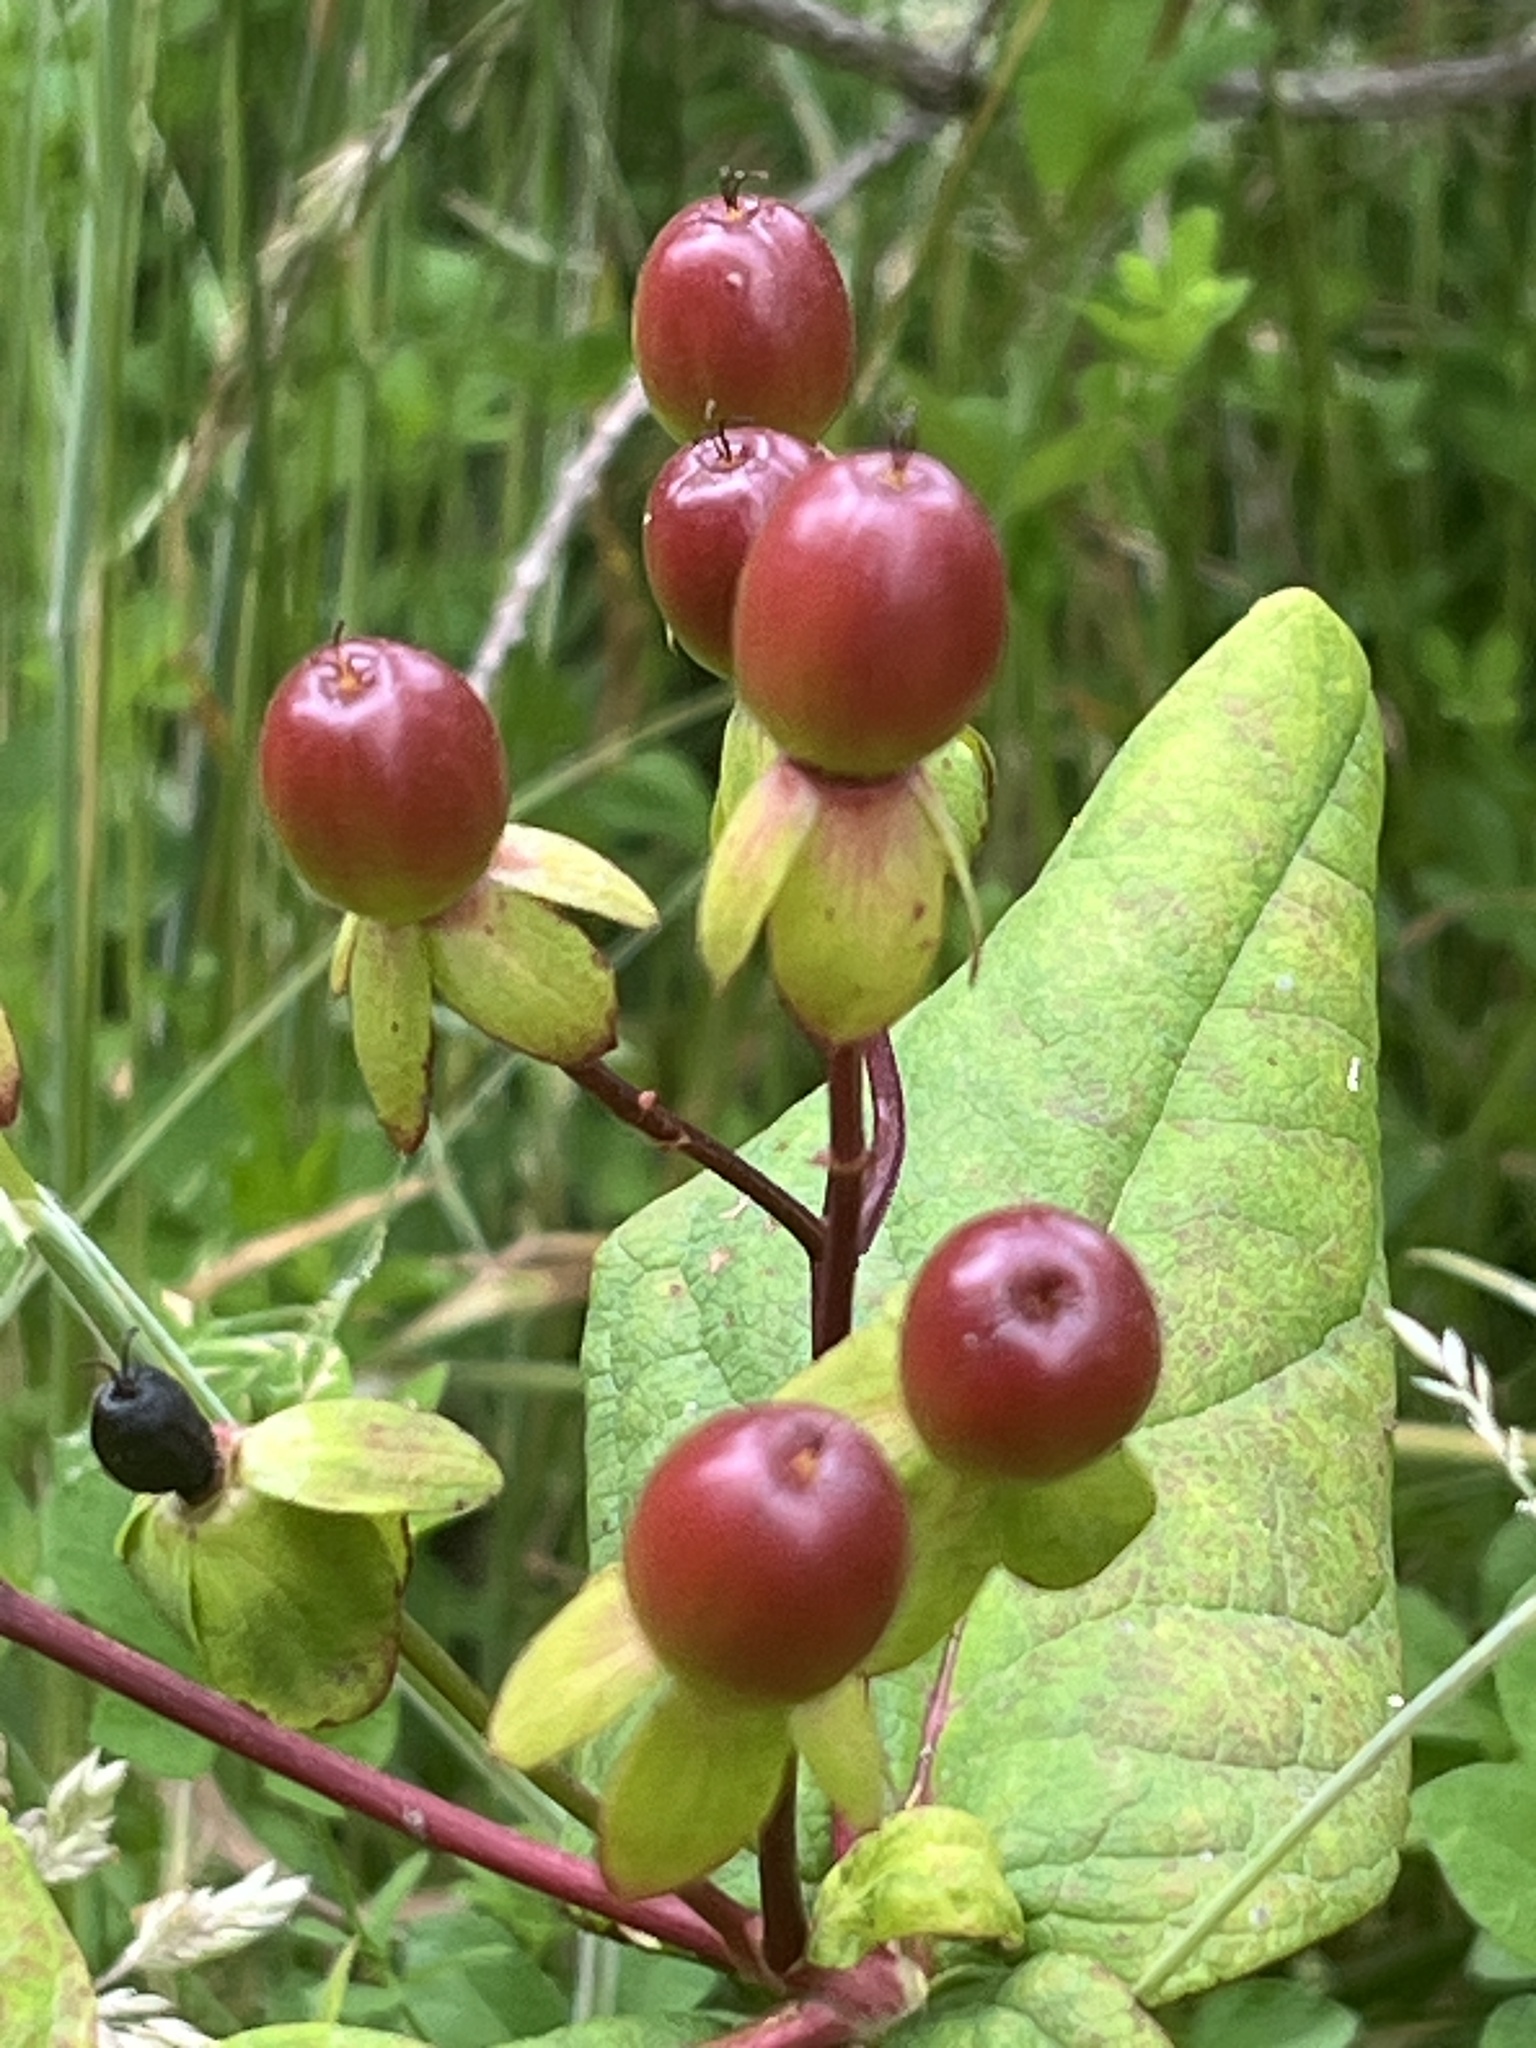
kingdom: Plantae
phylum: Tracheophyta
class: Magnoliopsida
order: Malpighiales
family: Hypericaceae
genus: Hypericum
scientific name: Hypericum androsaemum
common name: Sweet-amber
